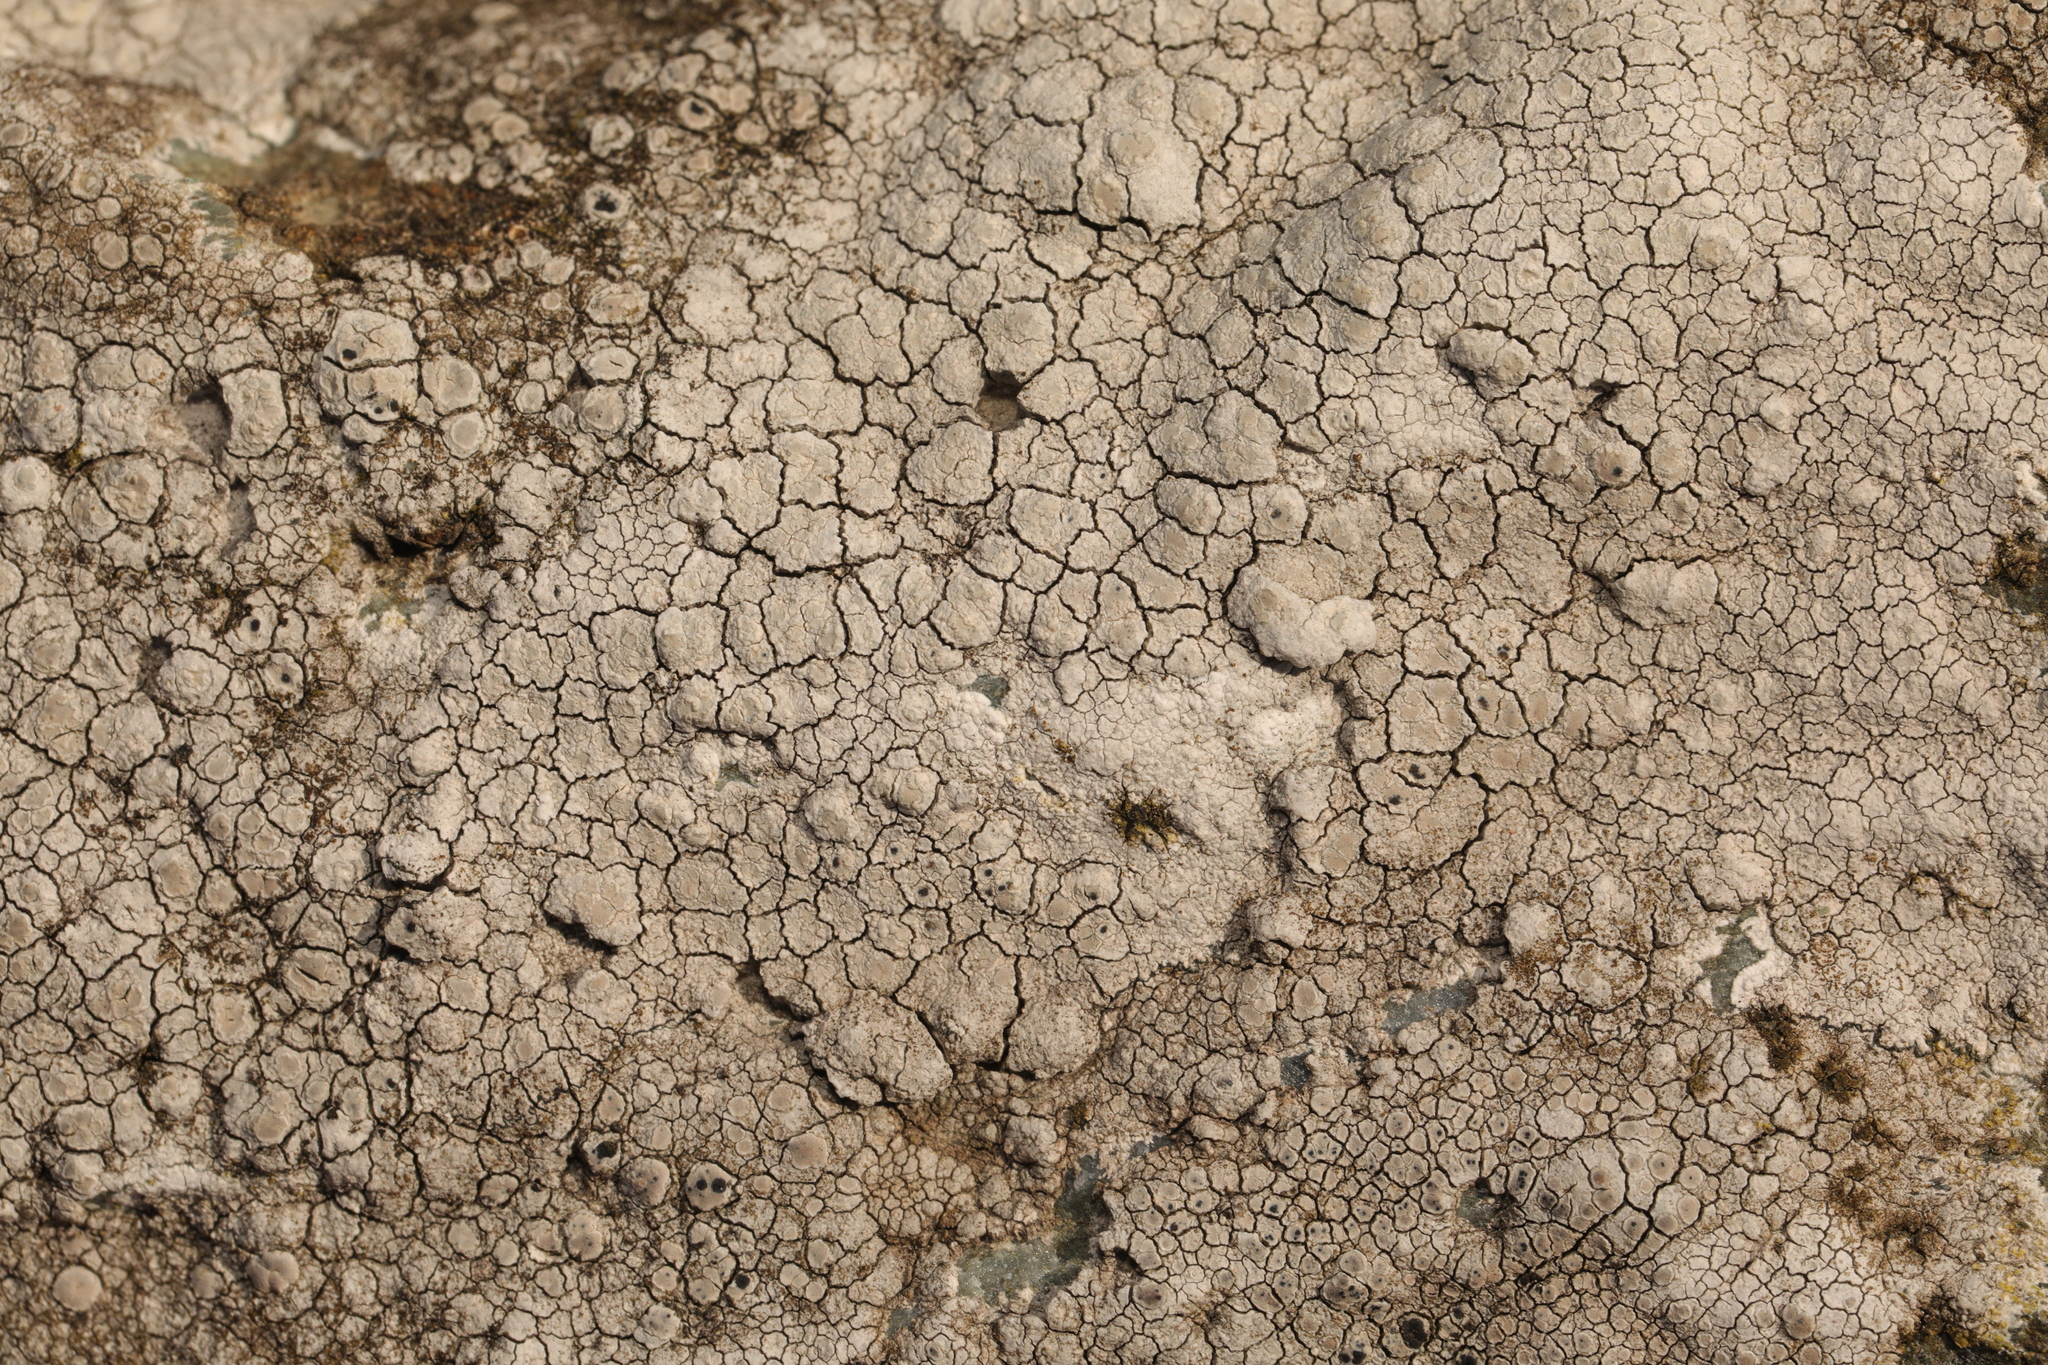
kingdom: Fungi
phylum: Ascomycota
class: Lecanoromycetes
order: Lecanorales
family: Lecanoraceae
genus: Glaucomaria
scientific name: Glaucomaria rupicola
